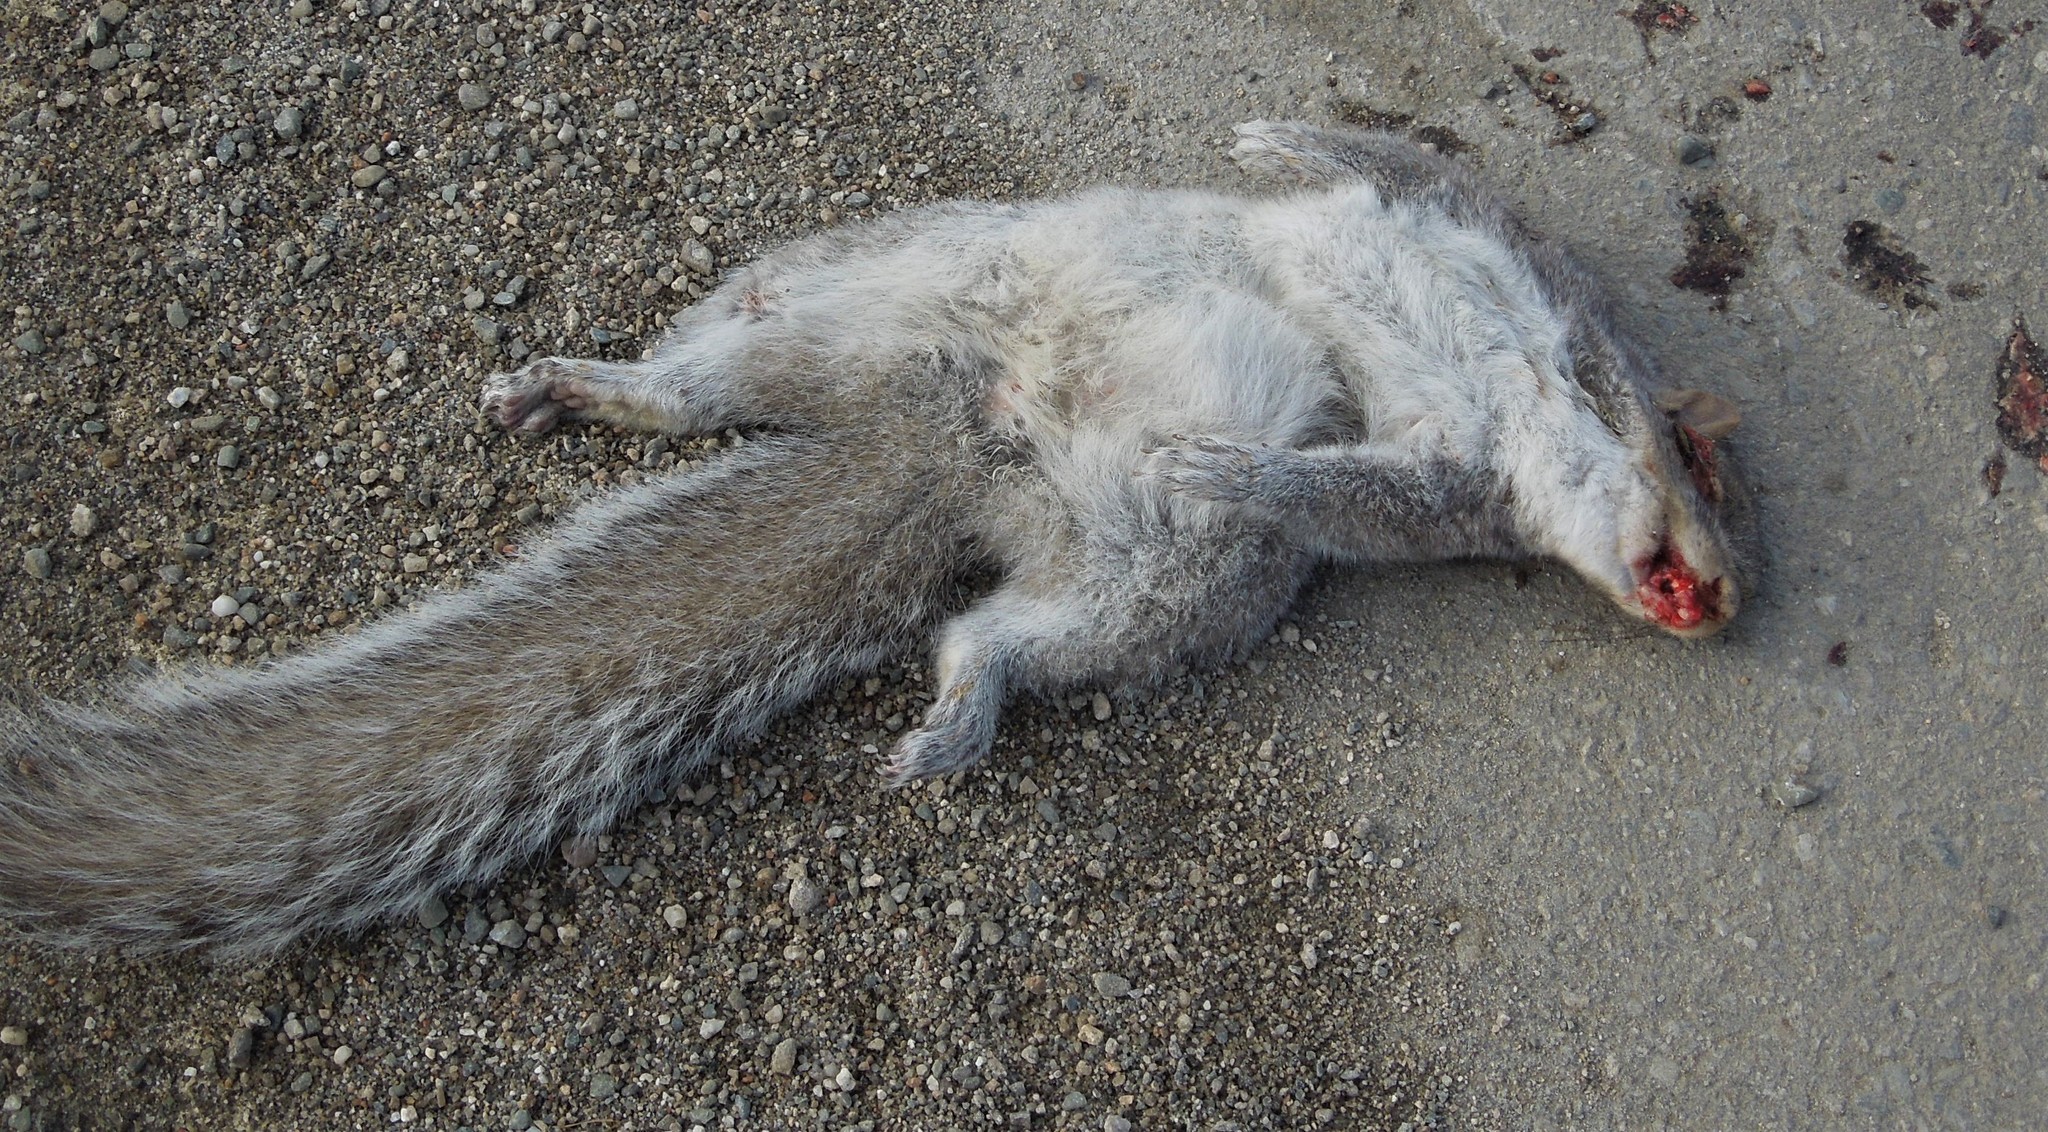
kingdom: Animalia
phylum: Chordata
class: Mammalia
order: Rodentia
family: Sciuridae
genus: Sciurus
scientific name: Sciurus carolinensis
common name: Eastern gray squirrel
